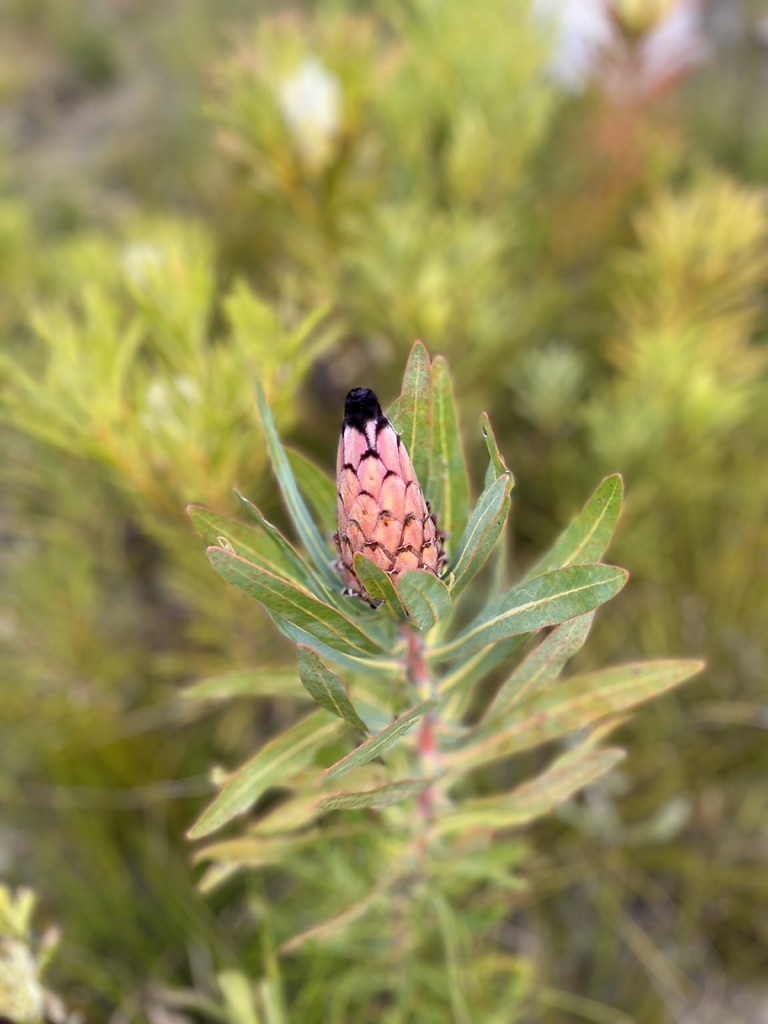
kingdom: Plantae
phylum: Tracheophyta
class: Magnoliopsida
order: Proteales
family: Proteaceae
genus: Protea
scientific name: Protea laurifolia
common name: Grey-leaf sugarbsh
